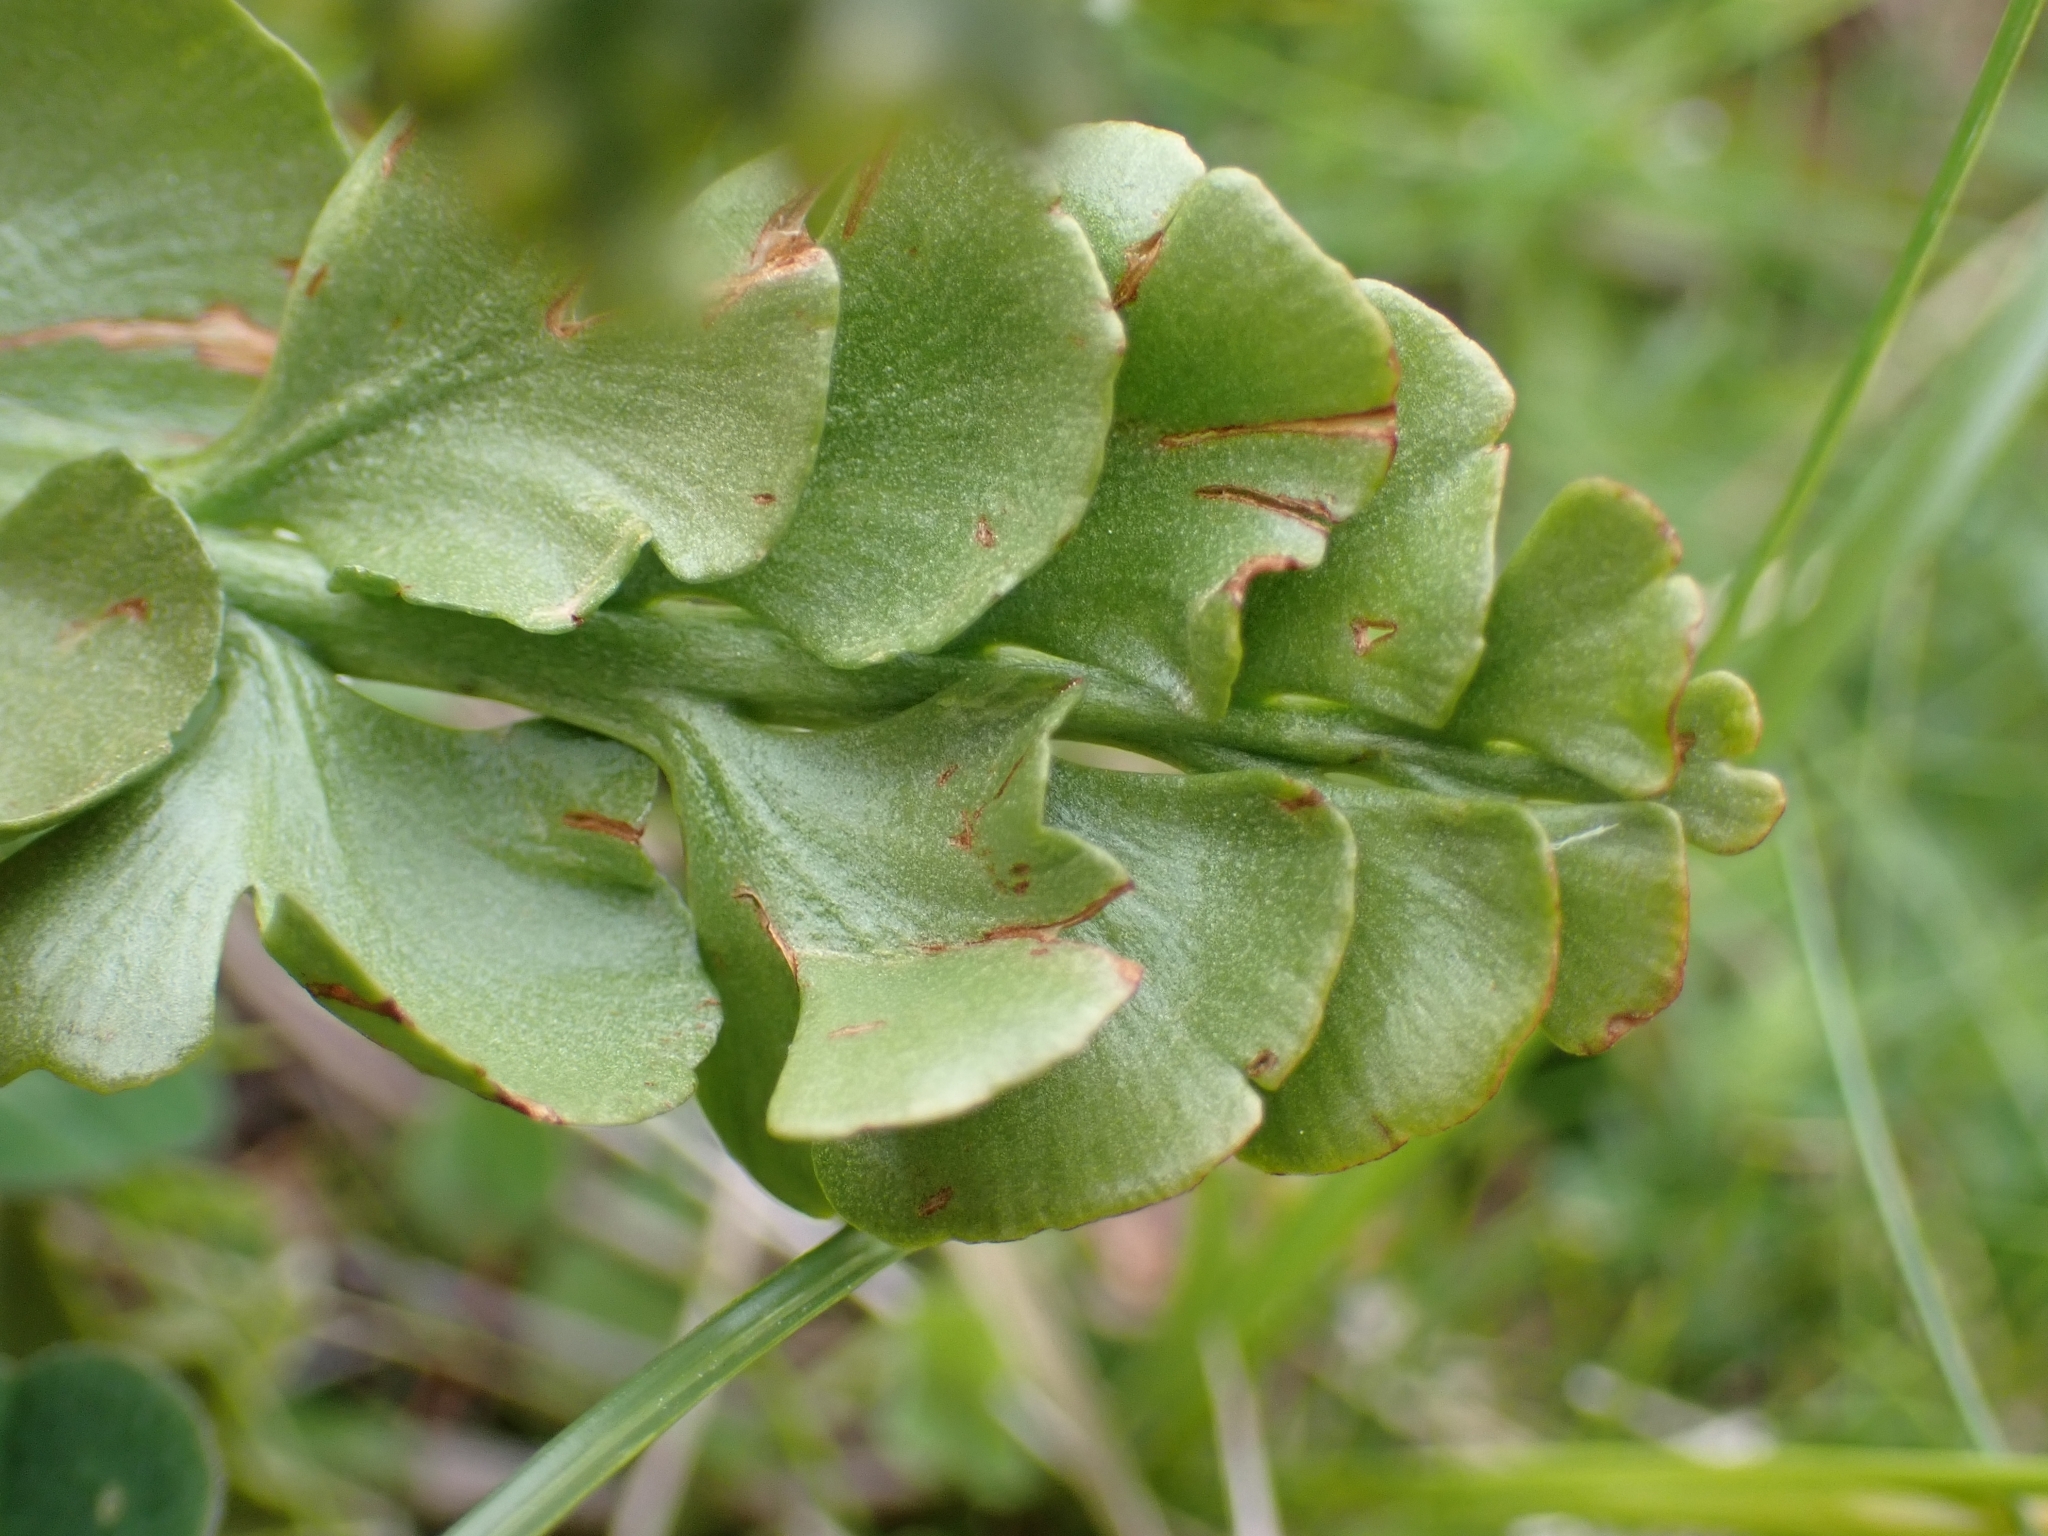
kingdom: Plantae
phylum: Tracheophyta
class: Polypodiopsida
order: Ophioglossales
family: Ophioglossaceae
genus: Botrychium
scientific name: Botrychium lunaria
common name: Moonwort
